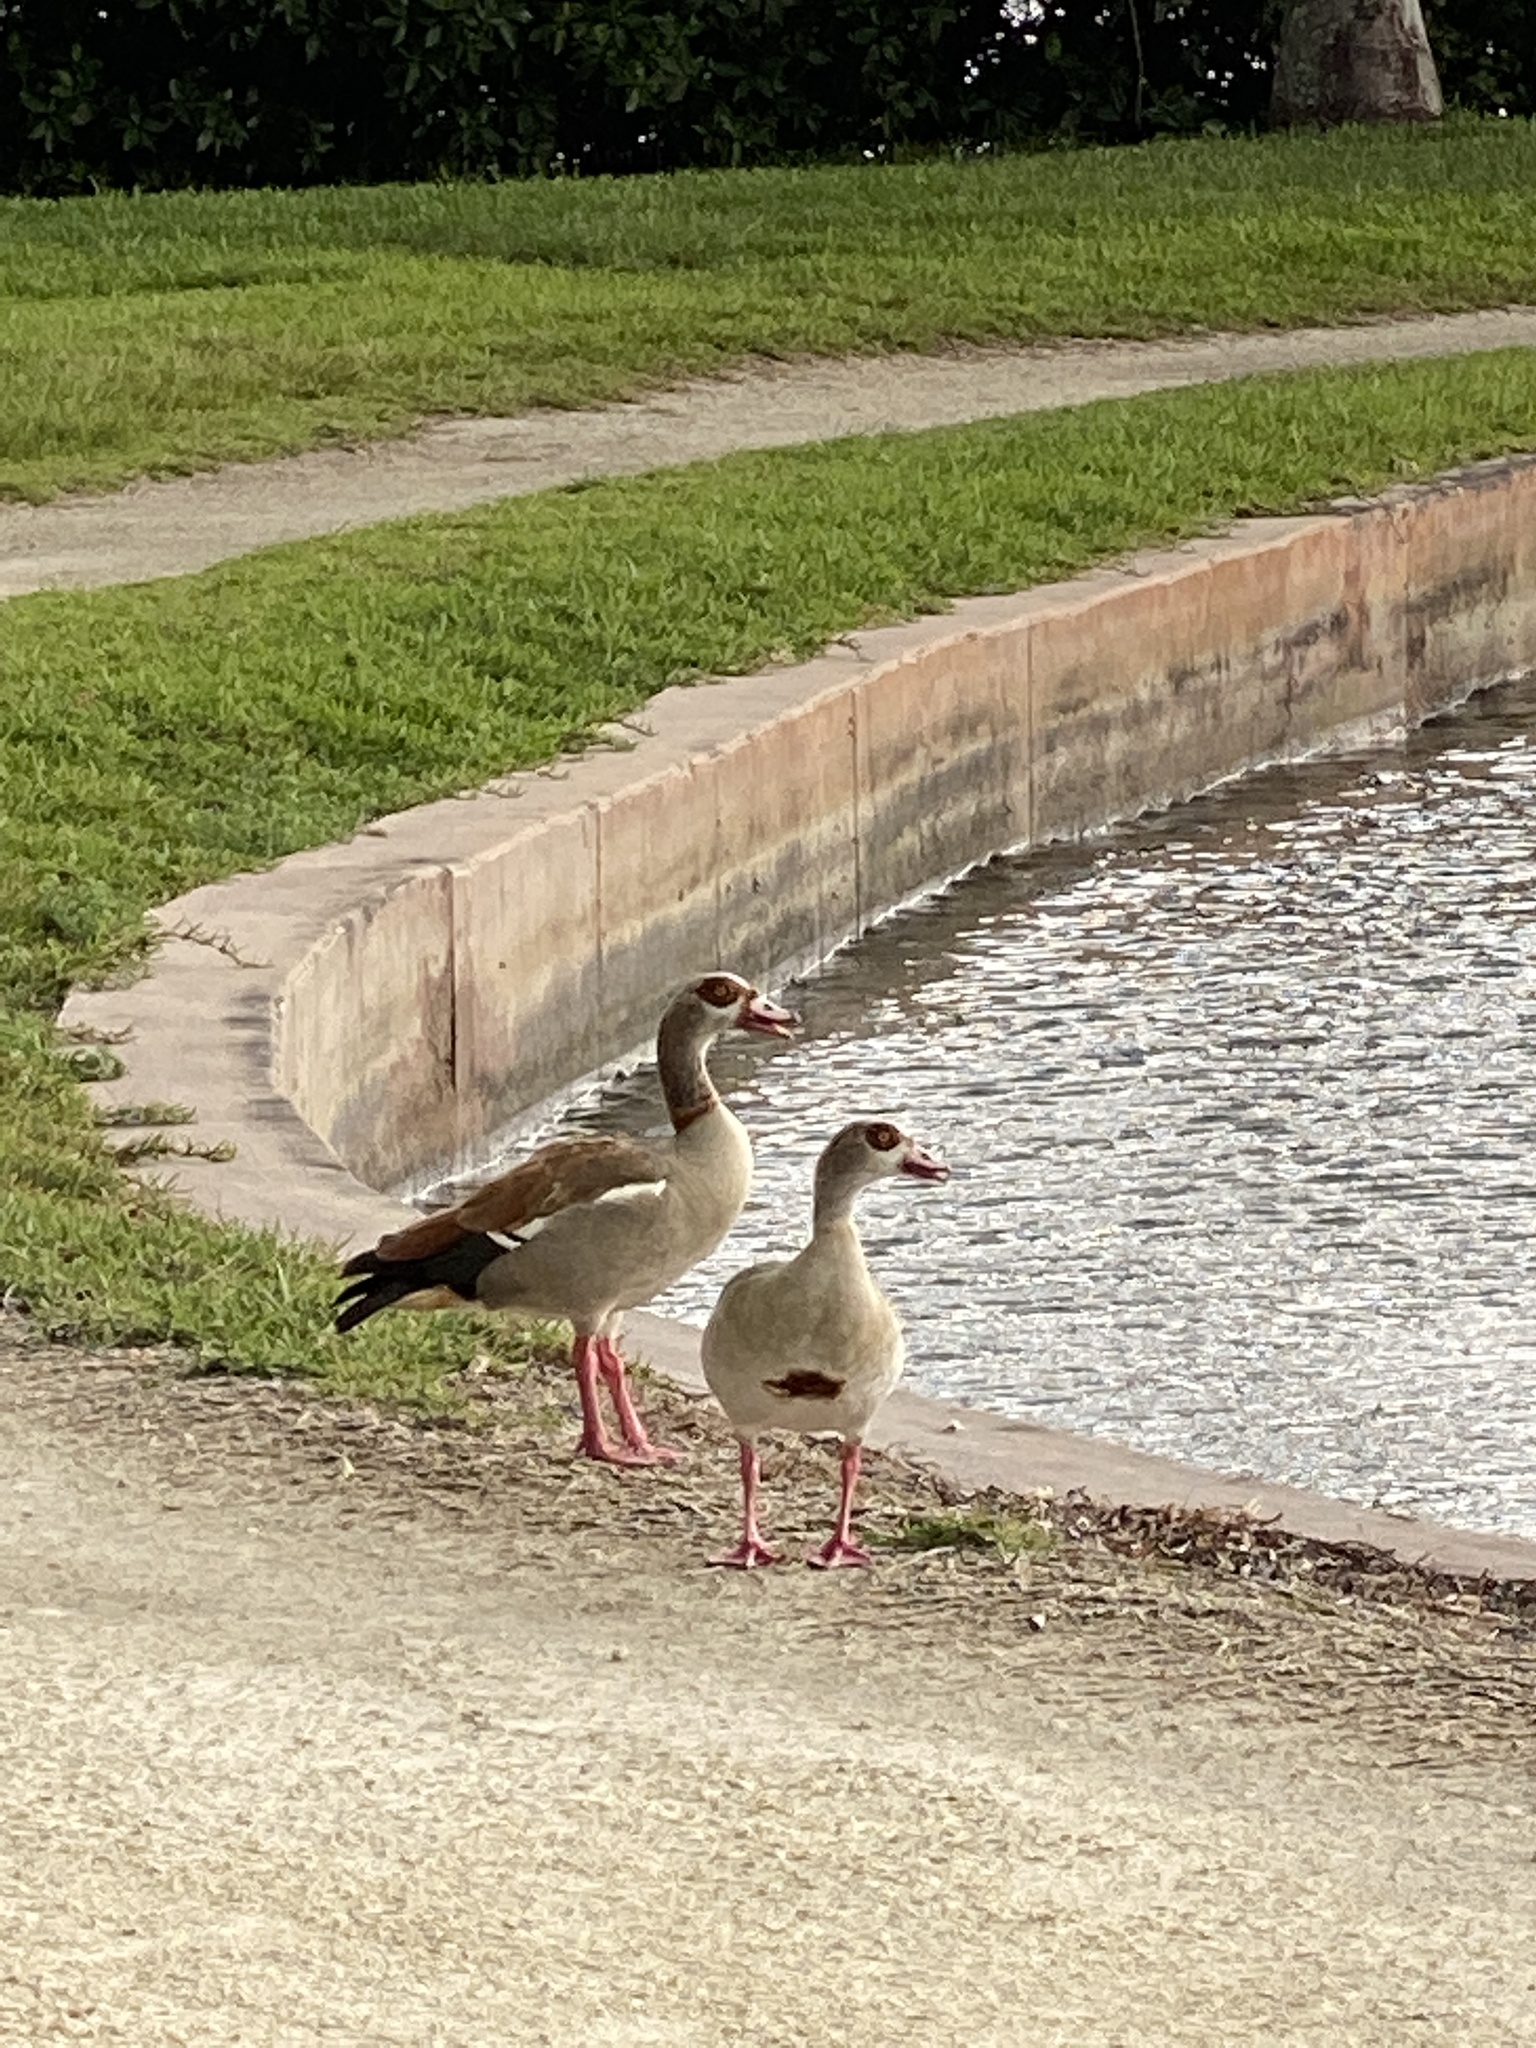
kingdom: Animalia
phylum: Chordata
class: Aves
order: Anseriformes
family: Anatidae
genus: Alopochen
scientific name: Alopochen aegyptiaca
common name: Egyptian goose
